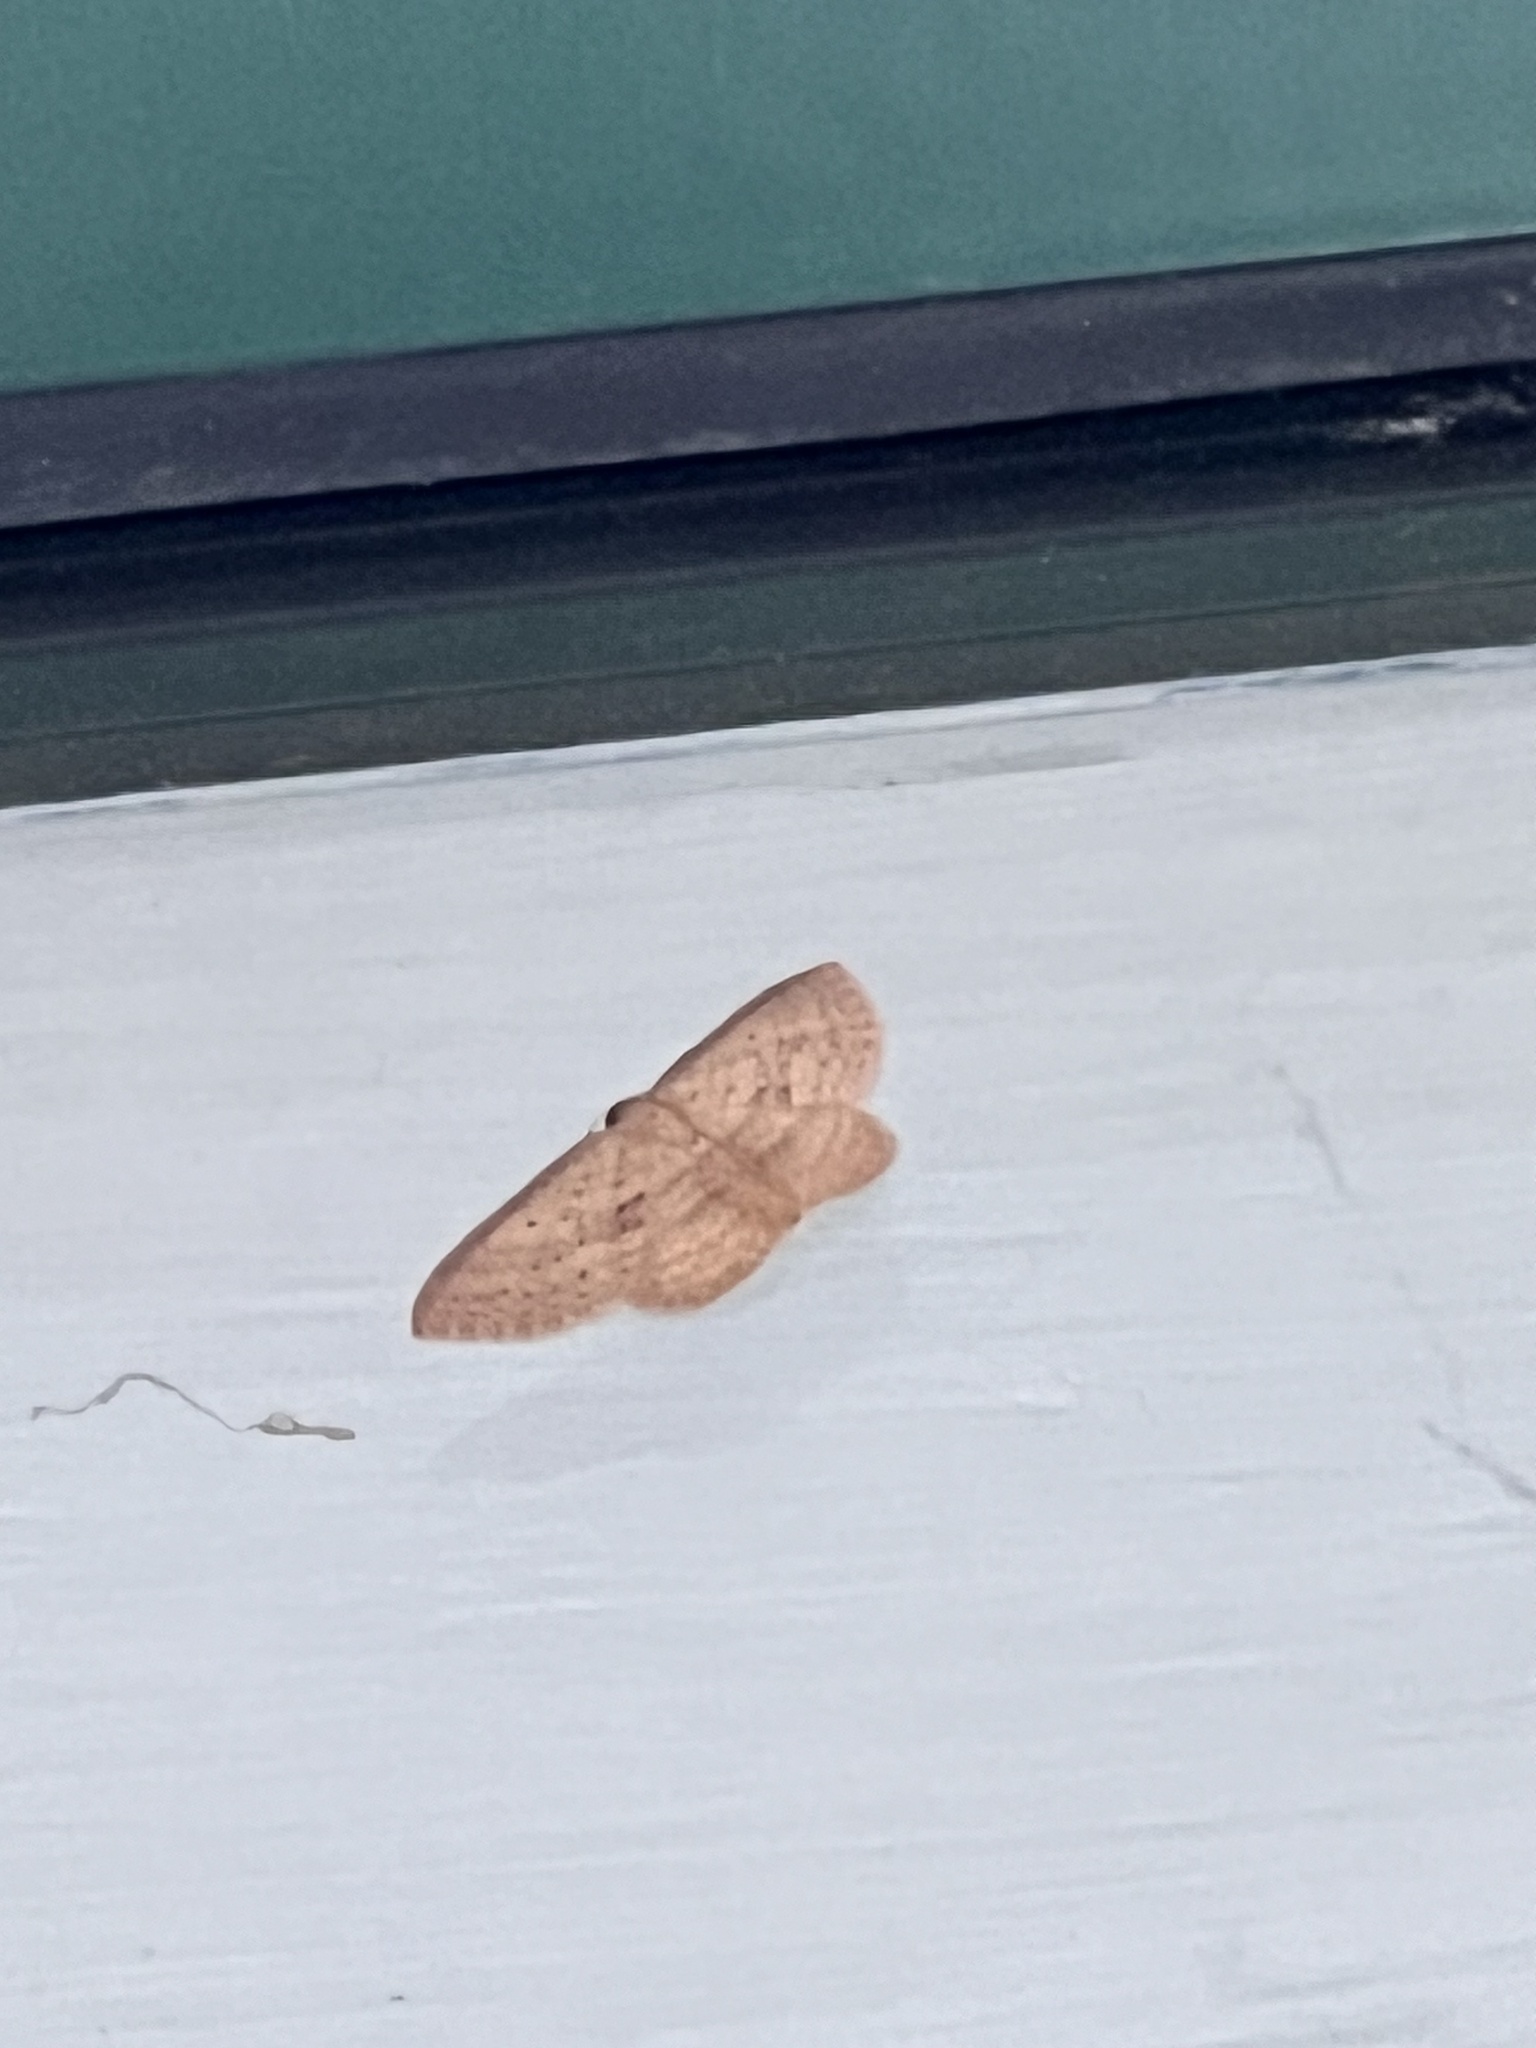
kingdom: Animalia
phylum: Arthropoda
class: Insecta
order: Lepidoptera
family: Geometridae
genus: Poecilasthena
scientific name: Poecilasthena schistaria
